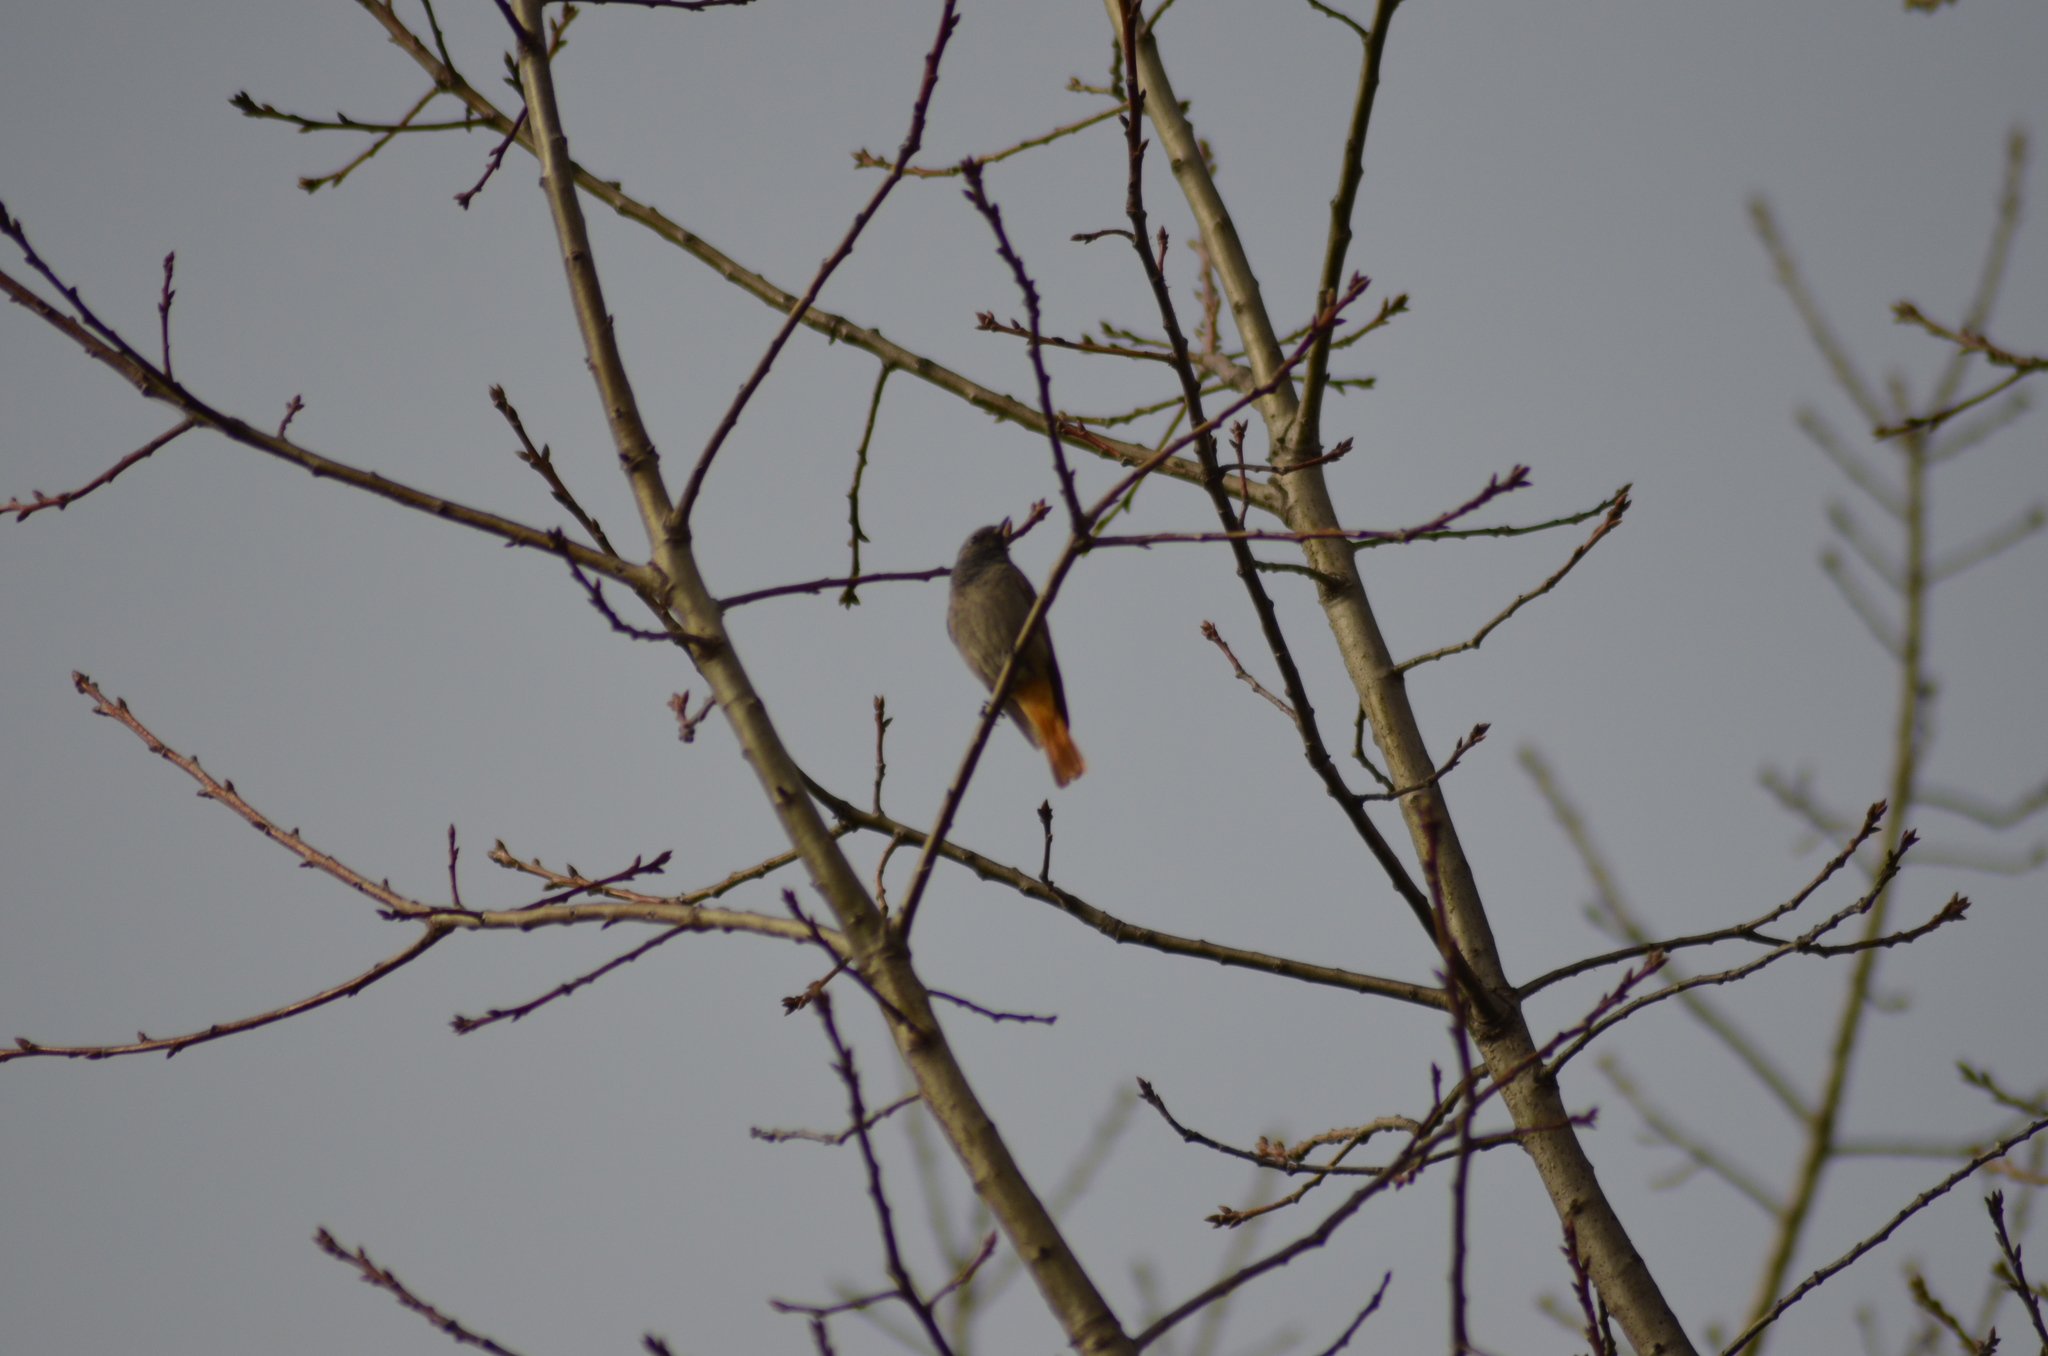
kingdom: Animalia
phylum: Chordata
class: Aves
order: Passeriformes
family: Muscicapidae
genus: Phoenicurus
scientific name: Phoenicurus ochruros
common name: Black redstart
